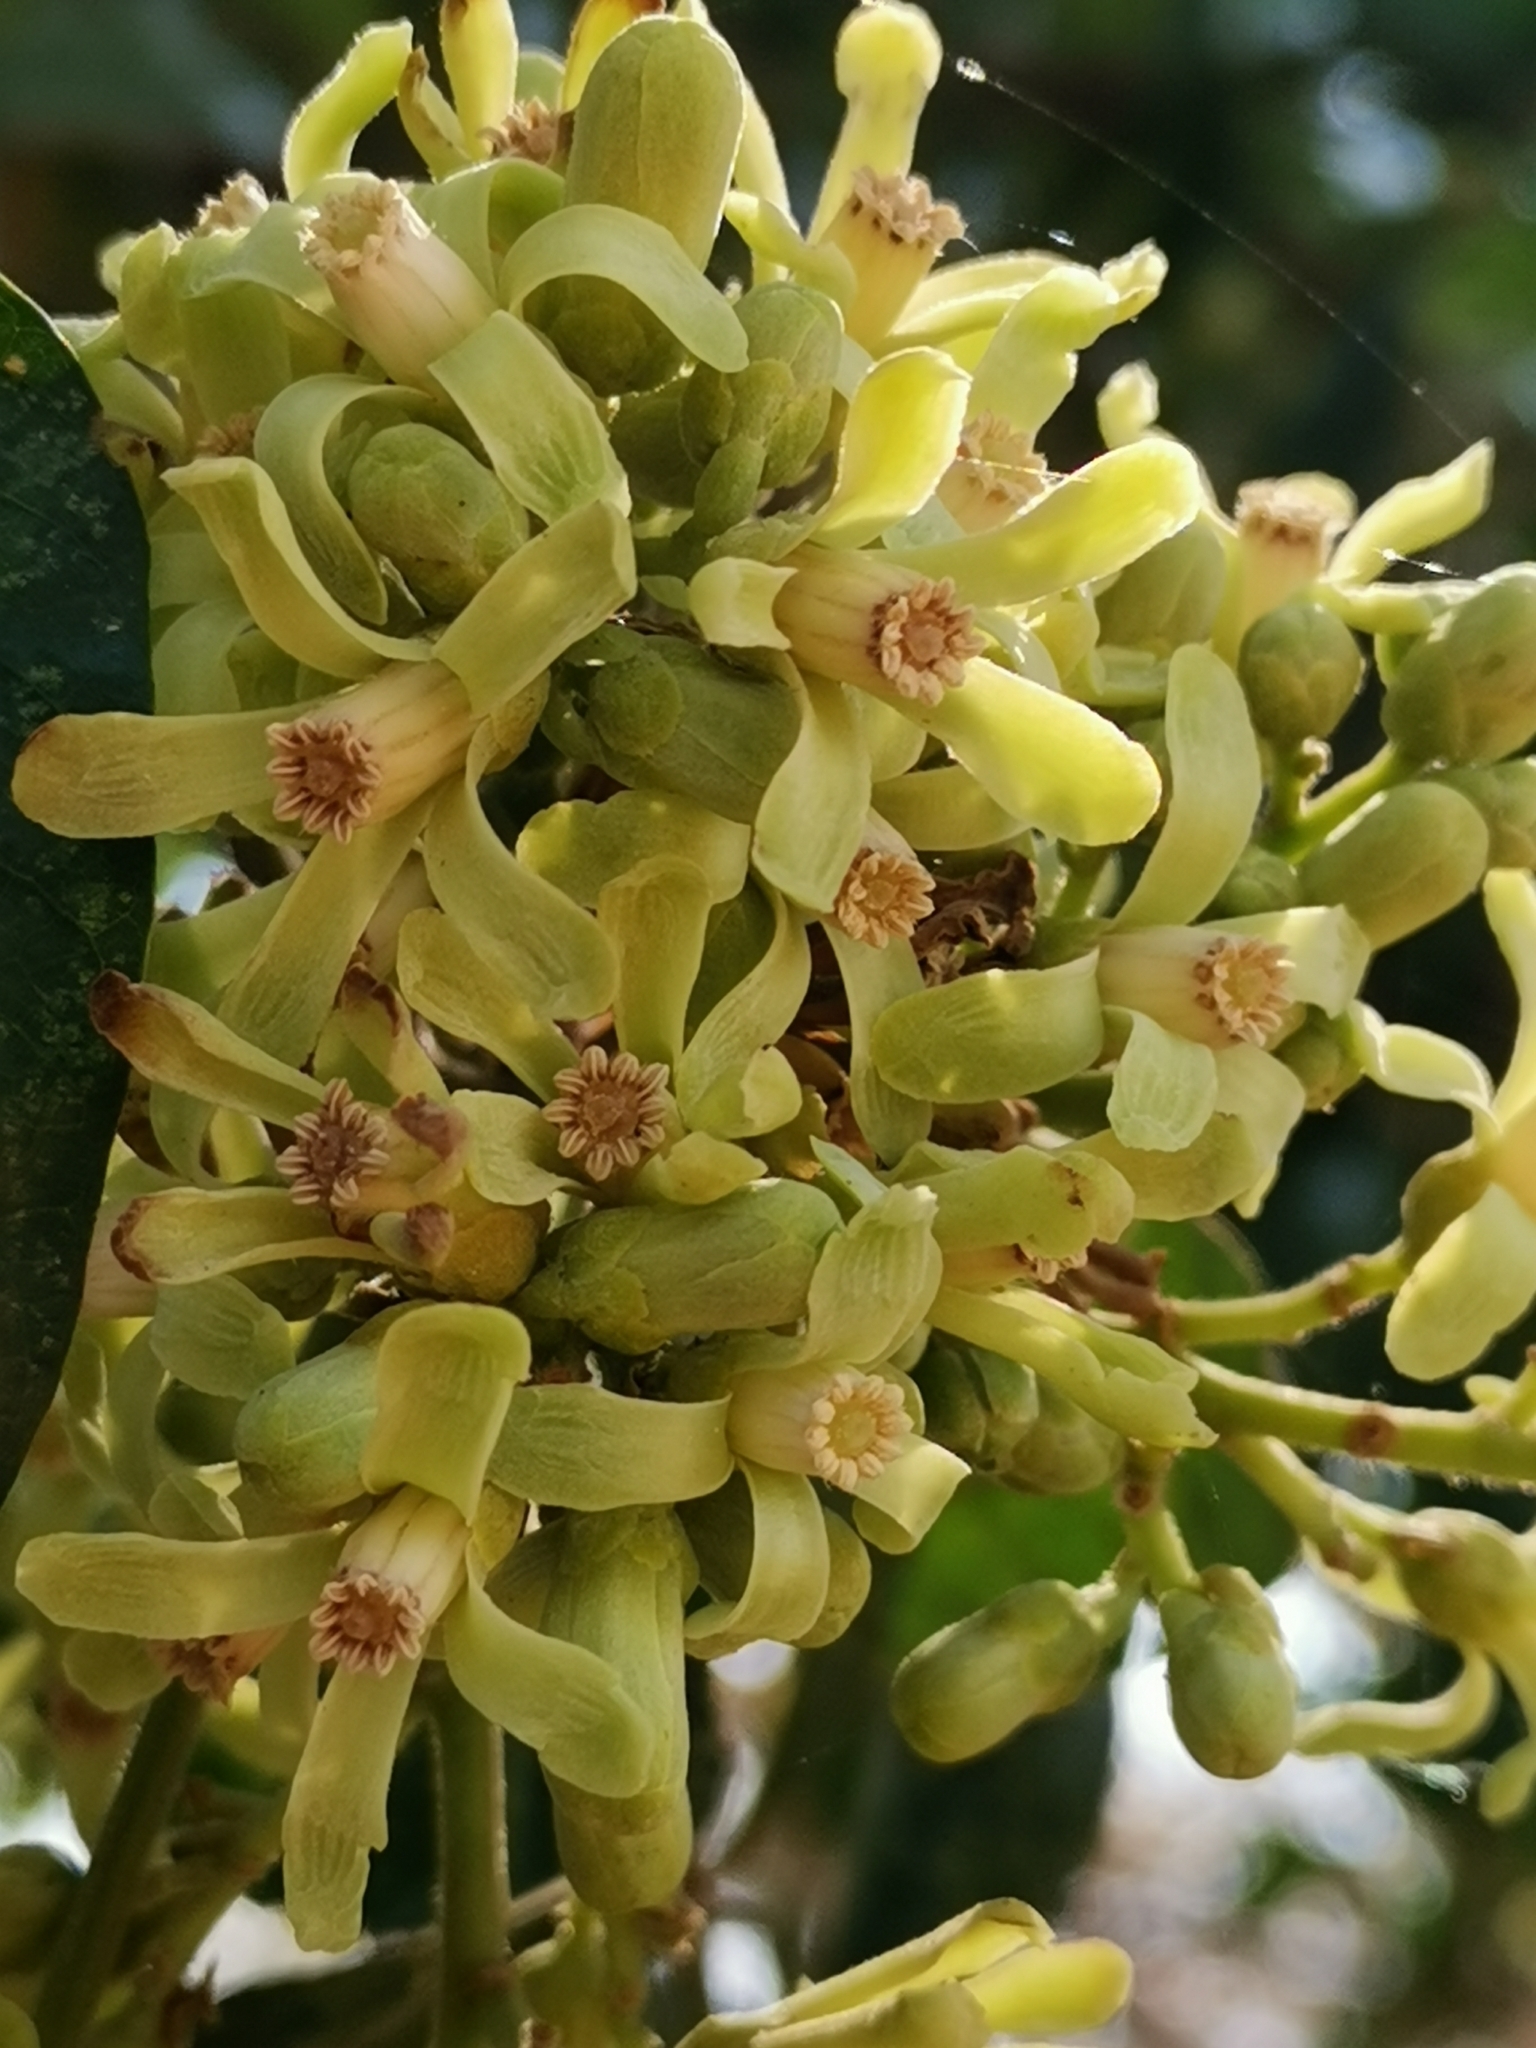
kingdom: Plantae
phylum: Tracheophyta
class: Magnoliopsida
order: Sapindales
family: Meliaceae
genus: Trichilia
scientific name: Trichilia emetica
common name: Christmas-bells
